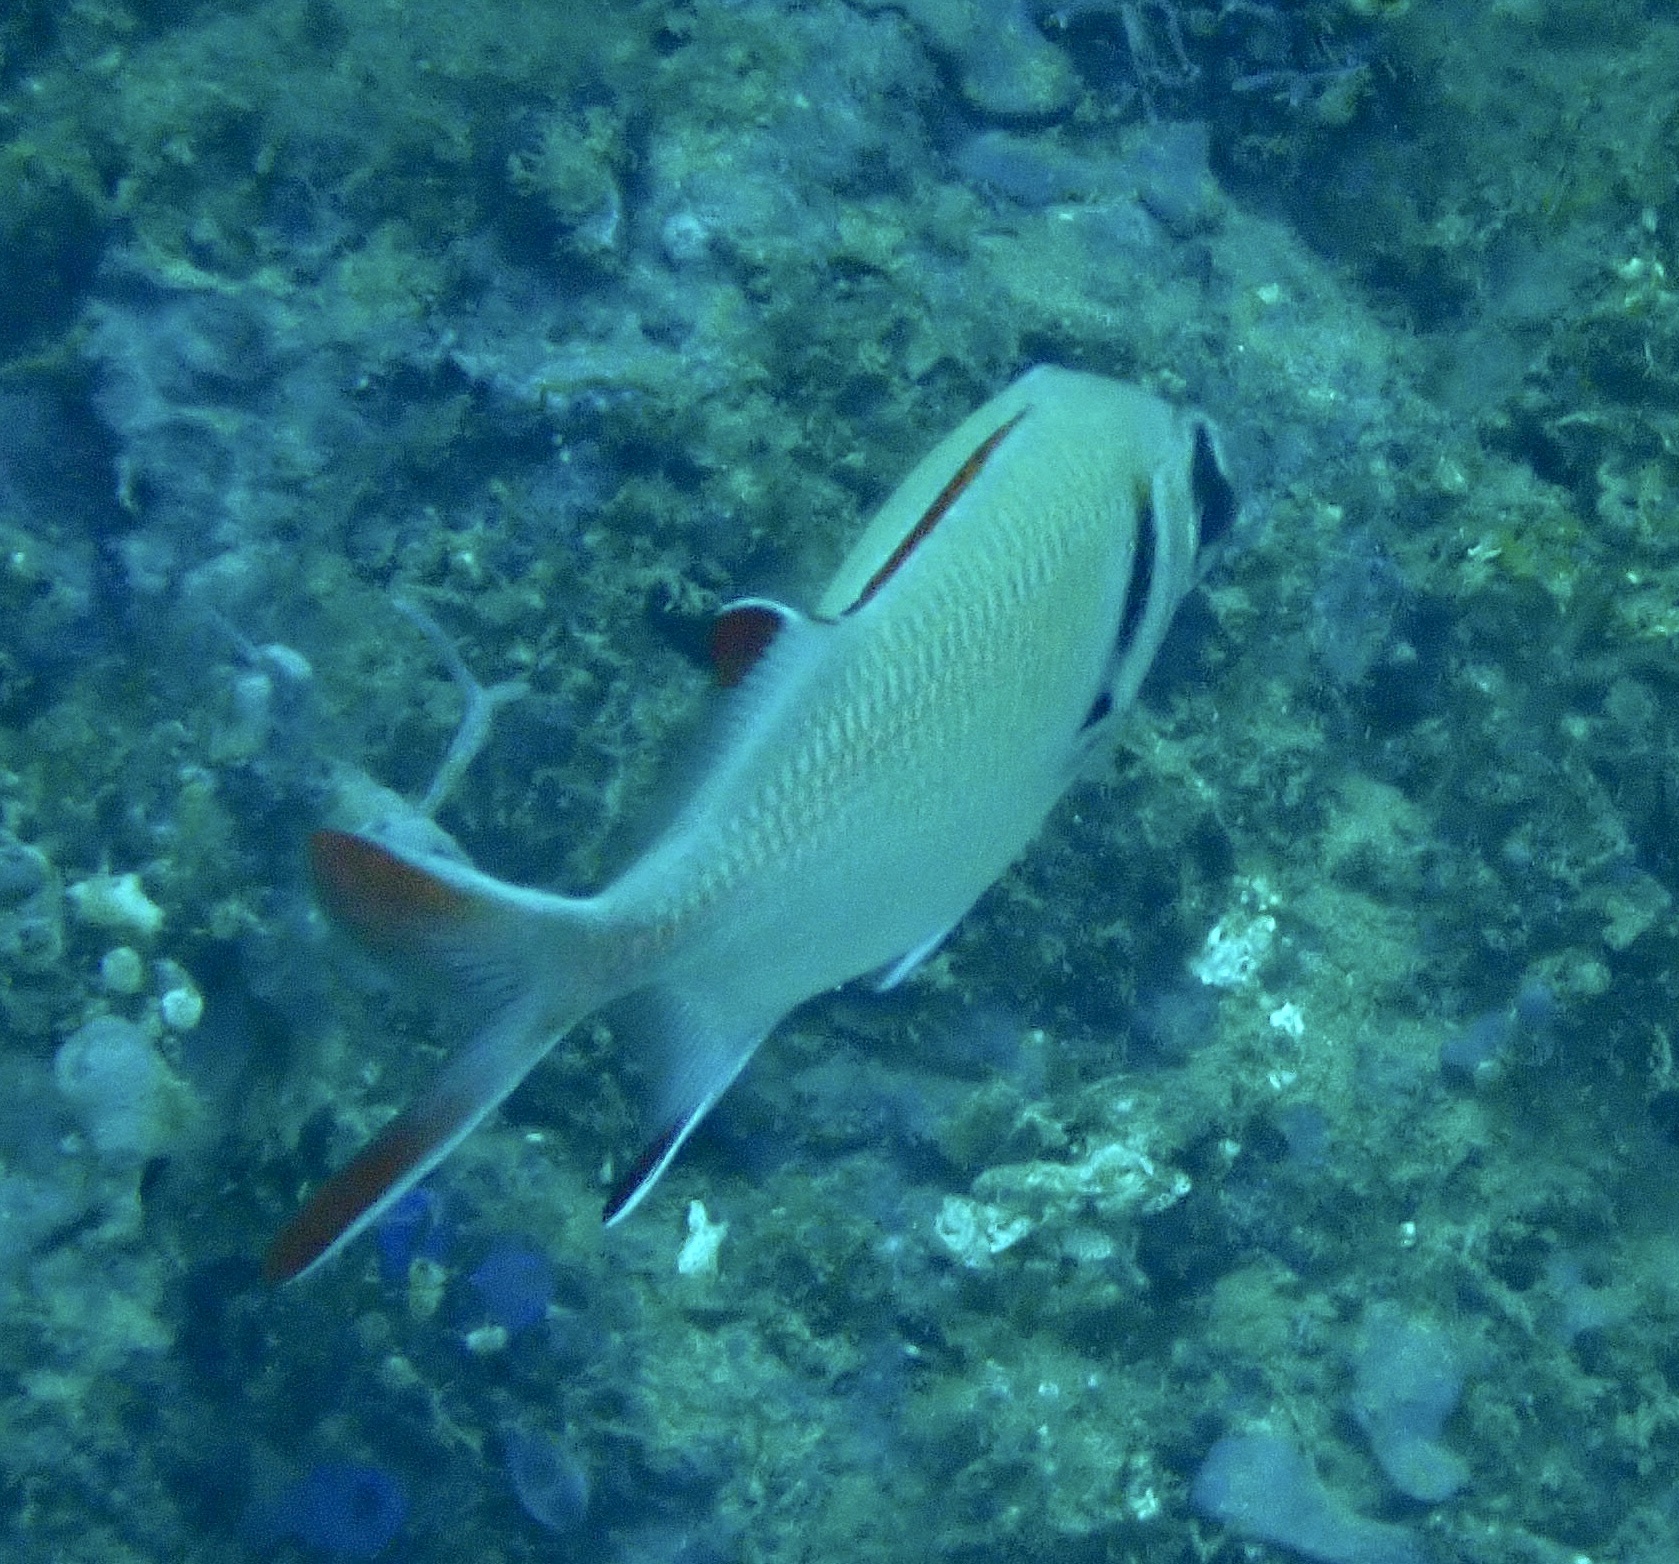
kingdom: Animalia
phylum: Chordata
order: Beryciformes
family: Holocentridae
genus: Myripristis
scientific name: Myripristis kuntee
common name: Epaulette soldierfish
